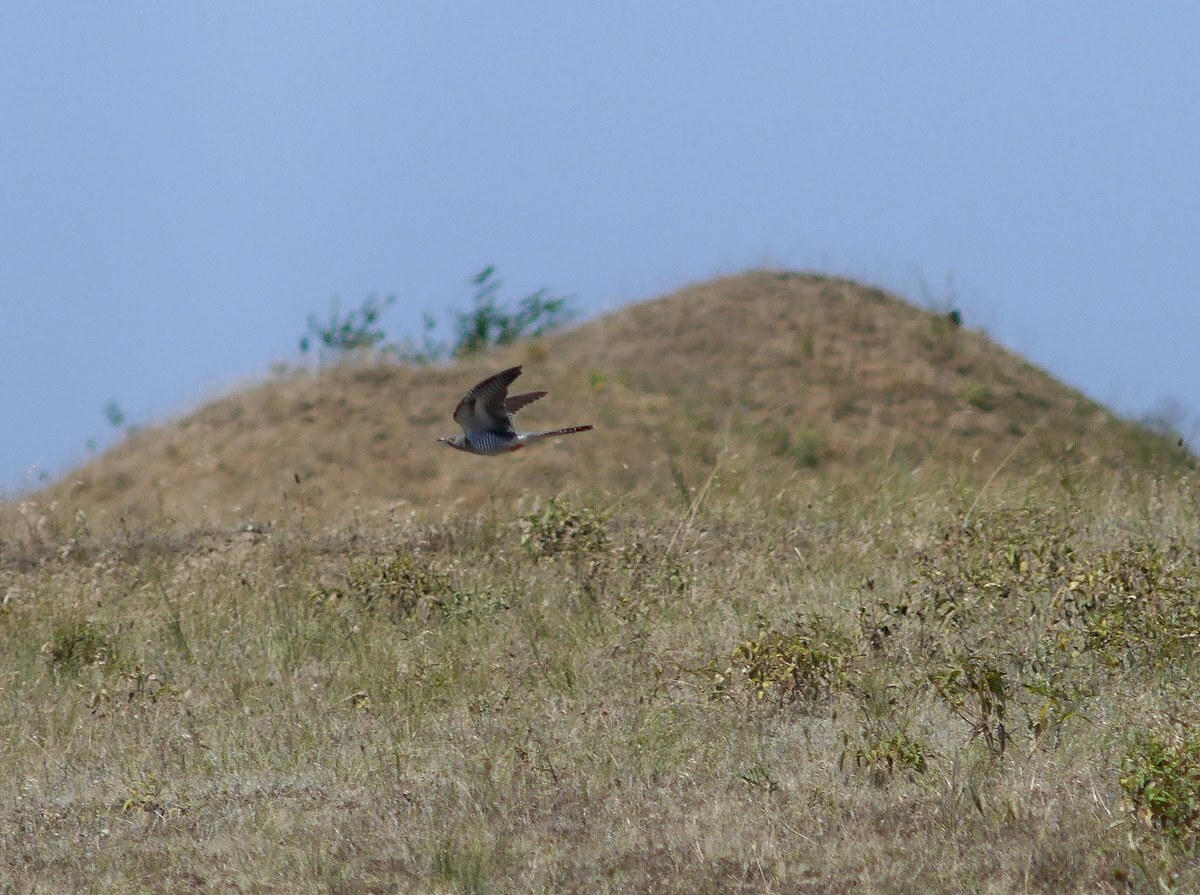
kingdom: Animalia
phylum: Chordata
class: Aves
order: Cuculiformes
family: Cuculidae
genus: Cuculus
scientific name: Cuculus canorus
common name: Common cuckoo
